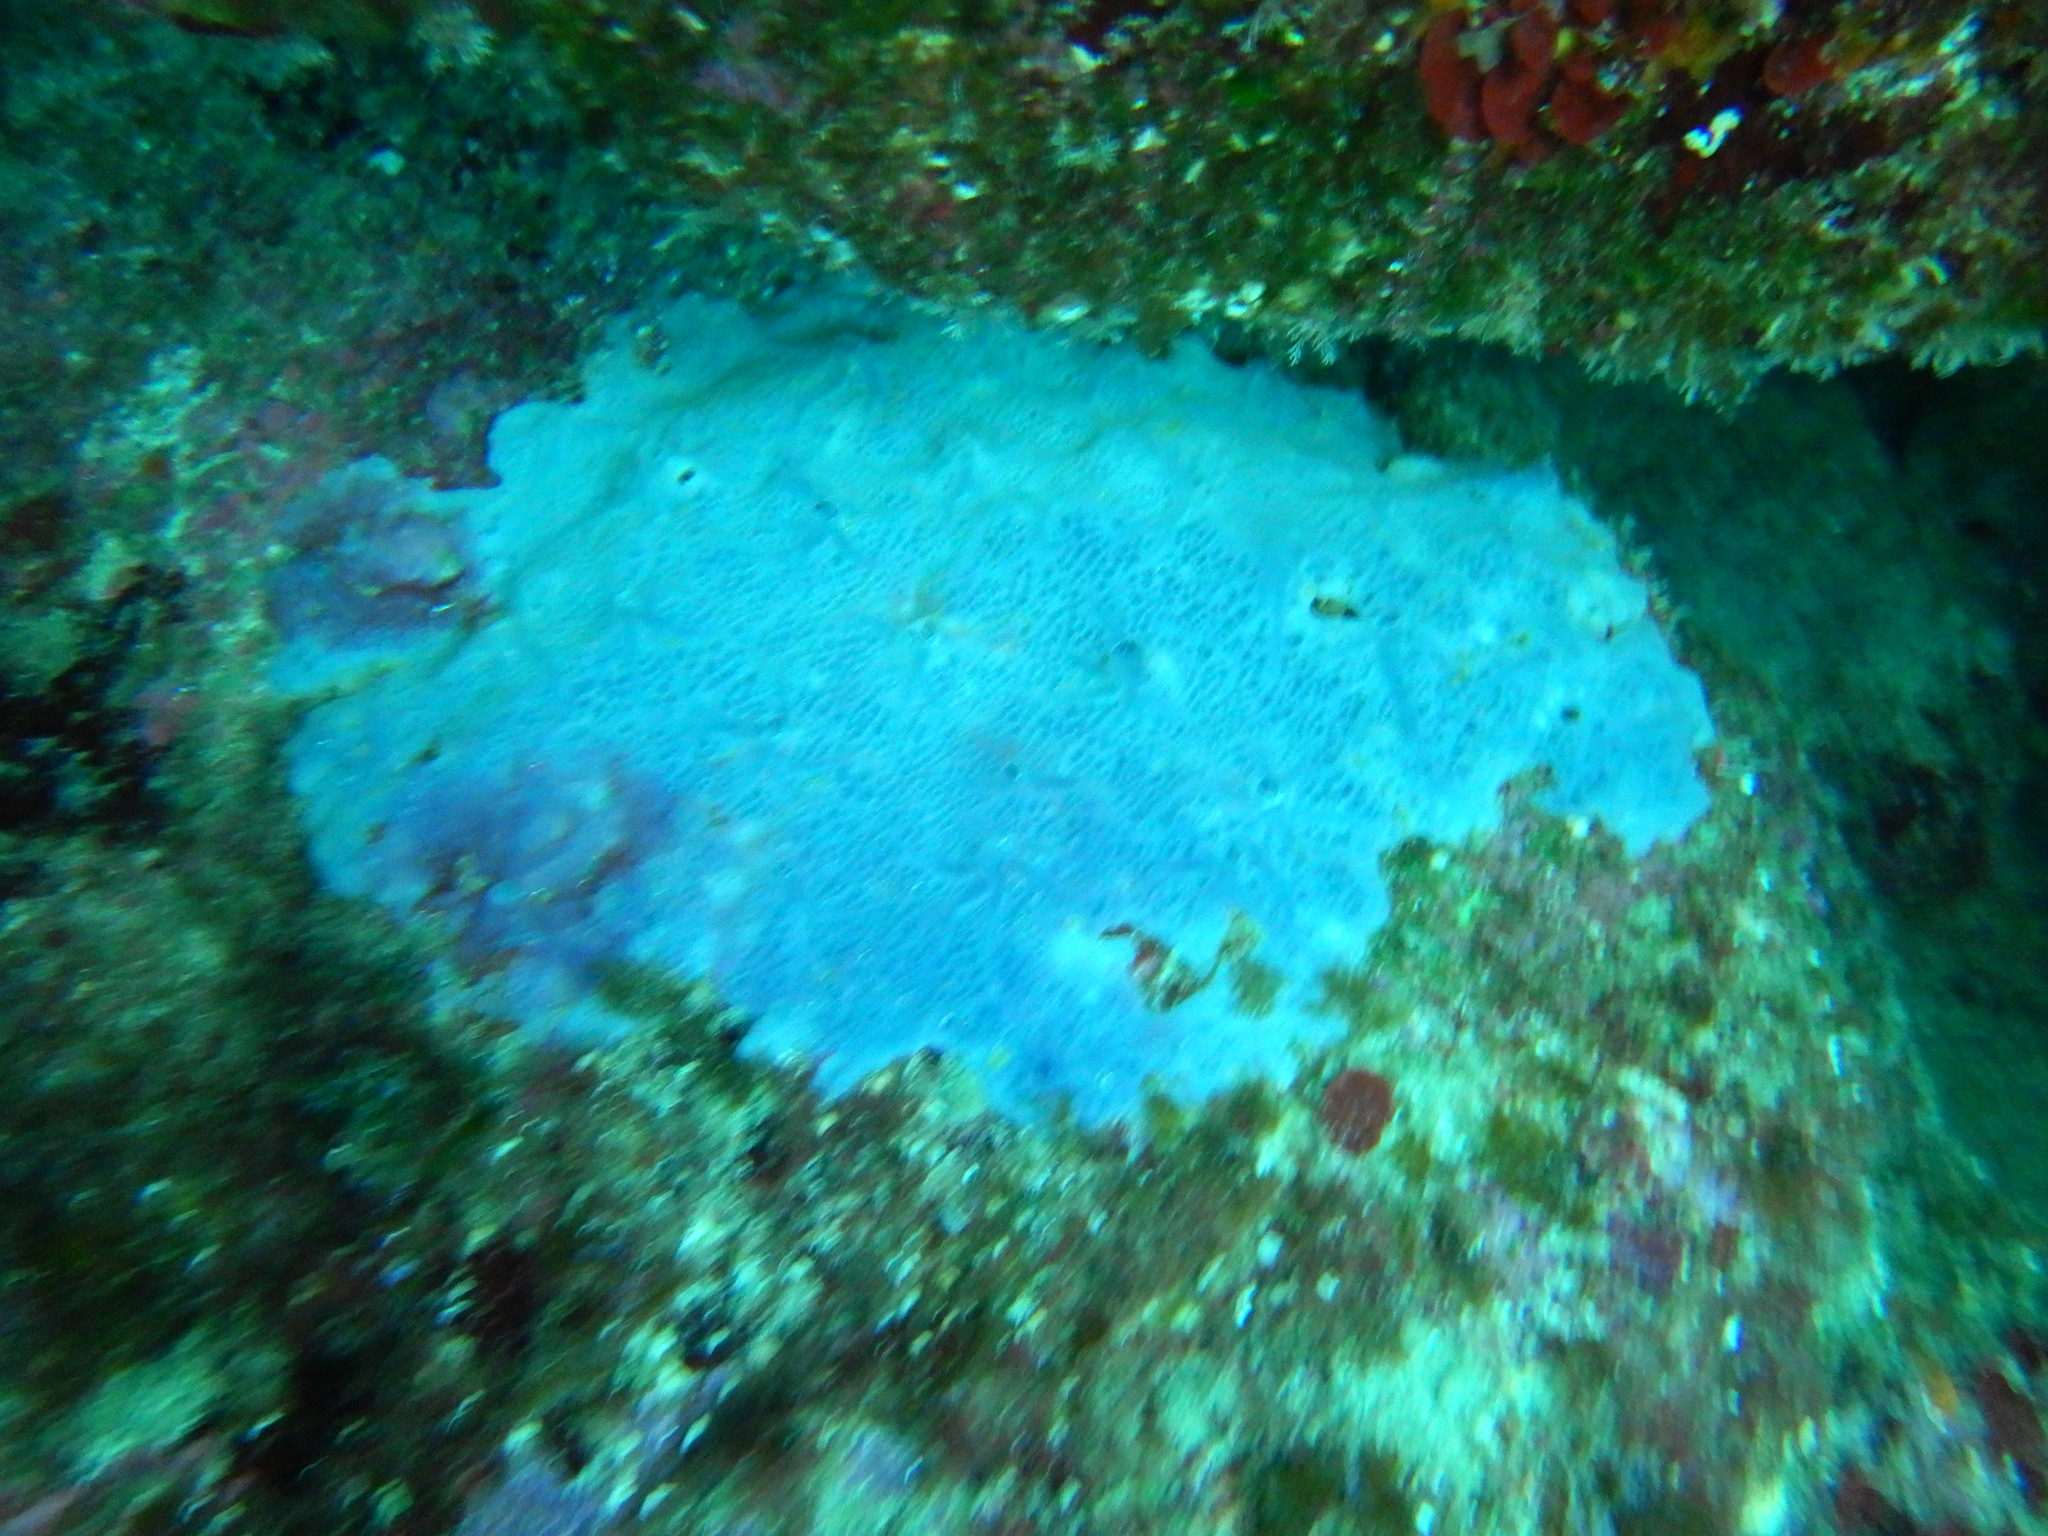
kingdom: Animalia
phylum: Porifera
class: Demospongiae
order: Poecilosclerida
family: Hymedesmiidae
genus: Phorbas
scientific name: Phorbas tenacior
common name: Bluish encrusting sponge
